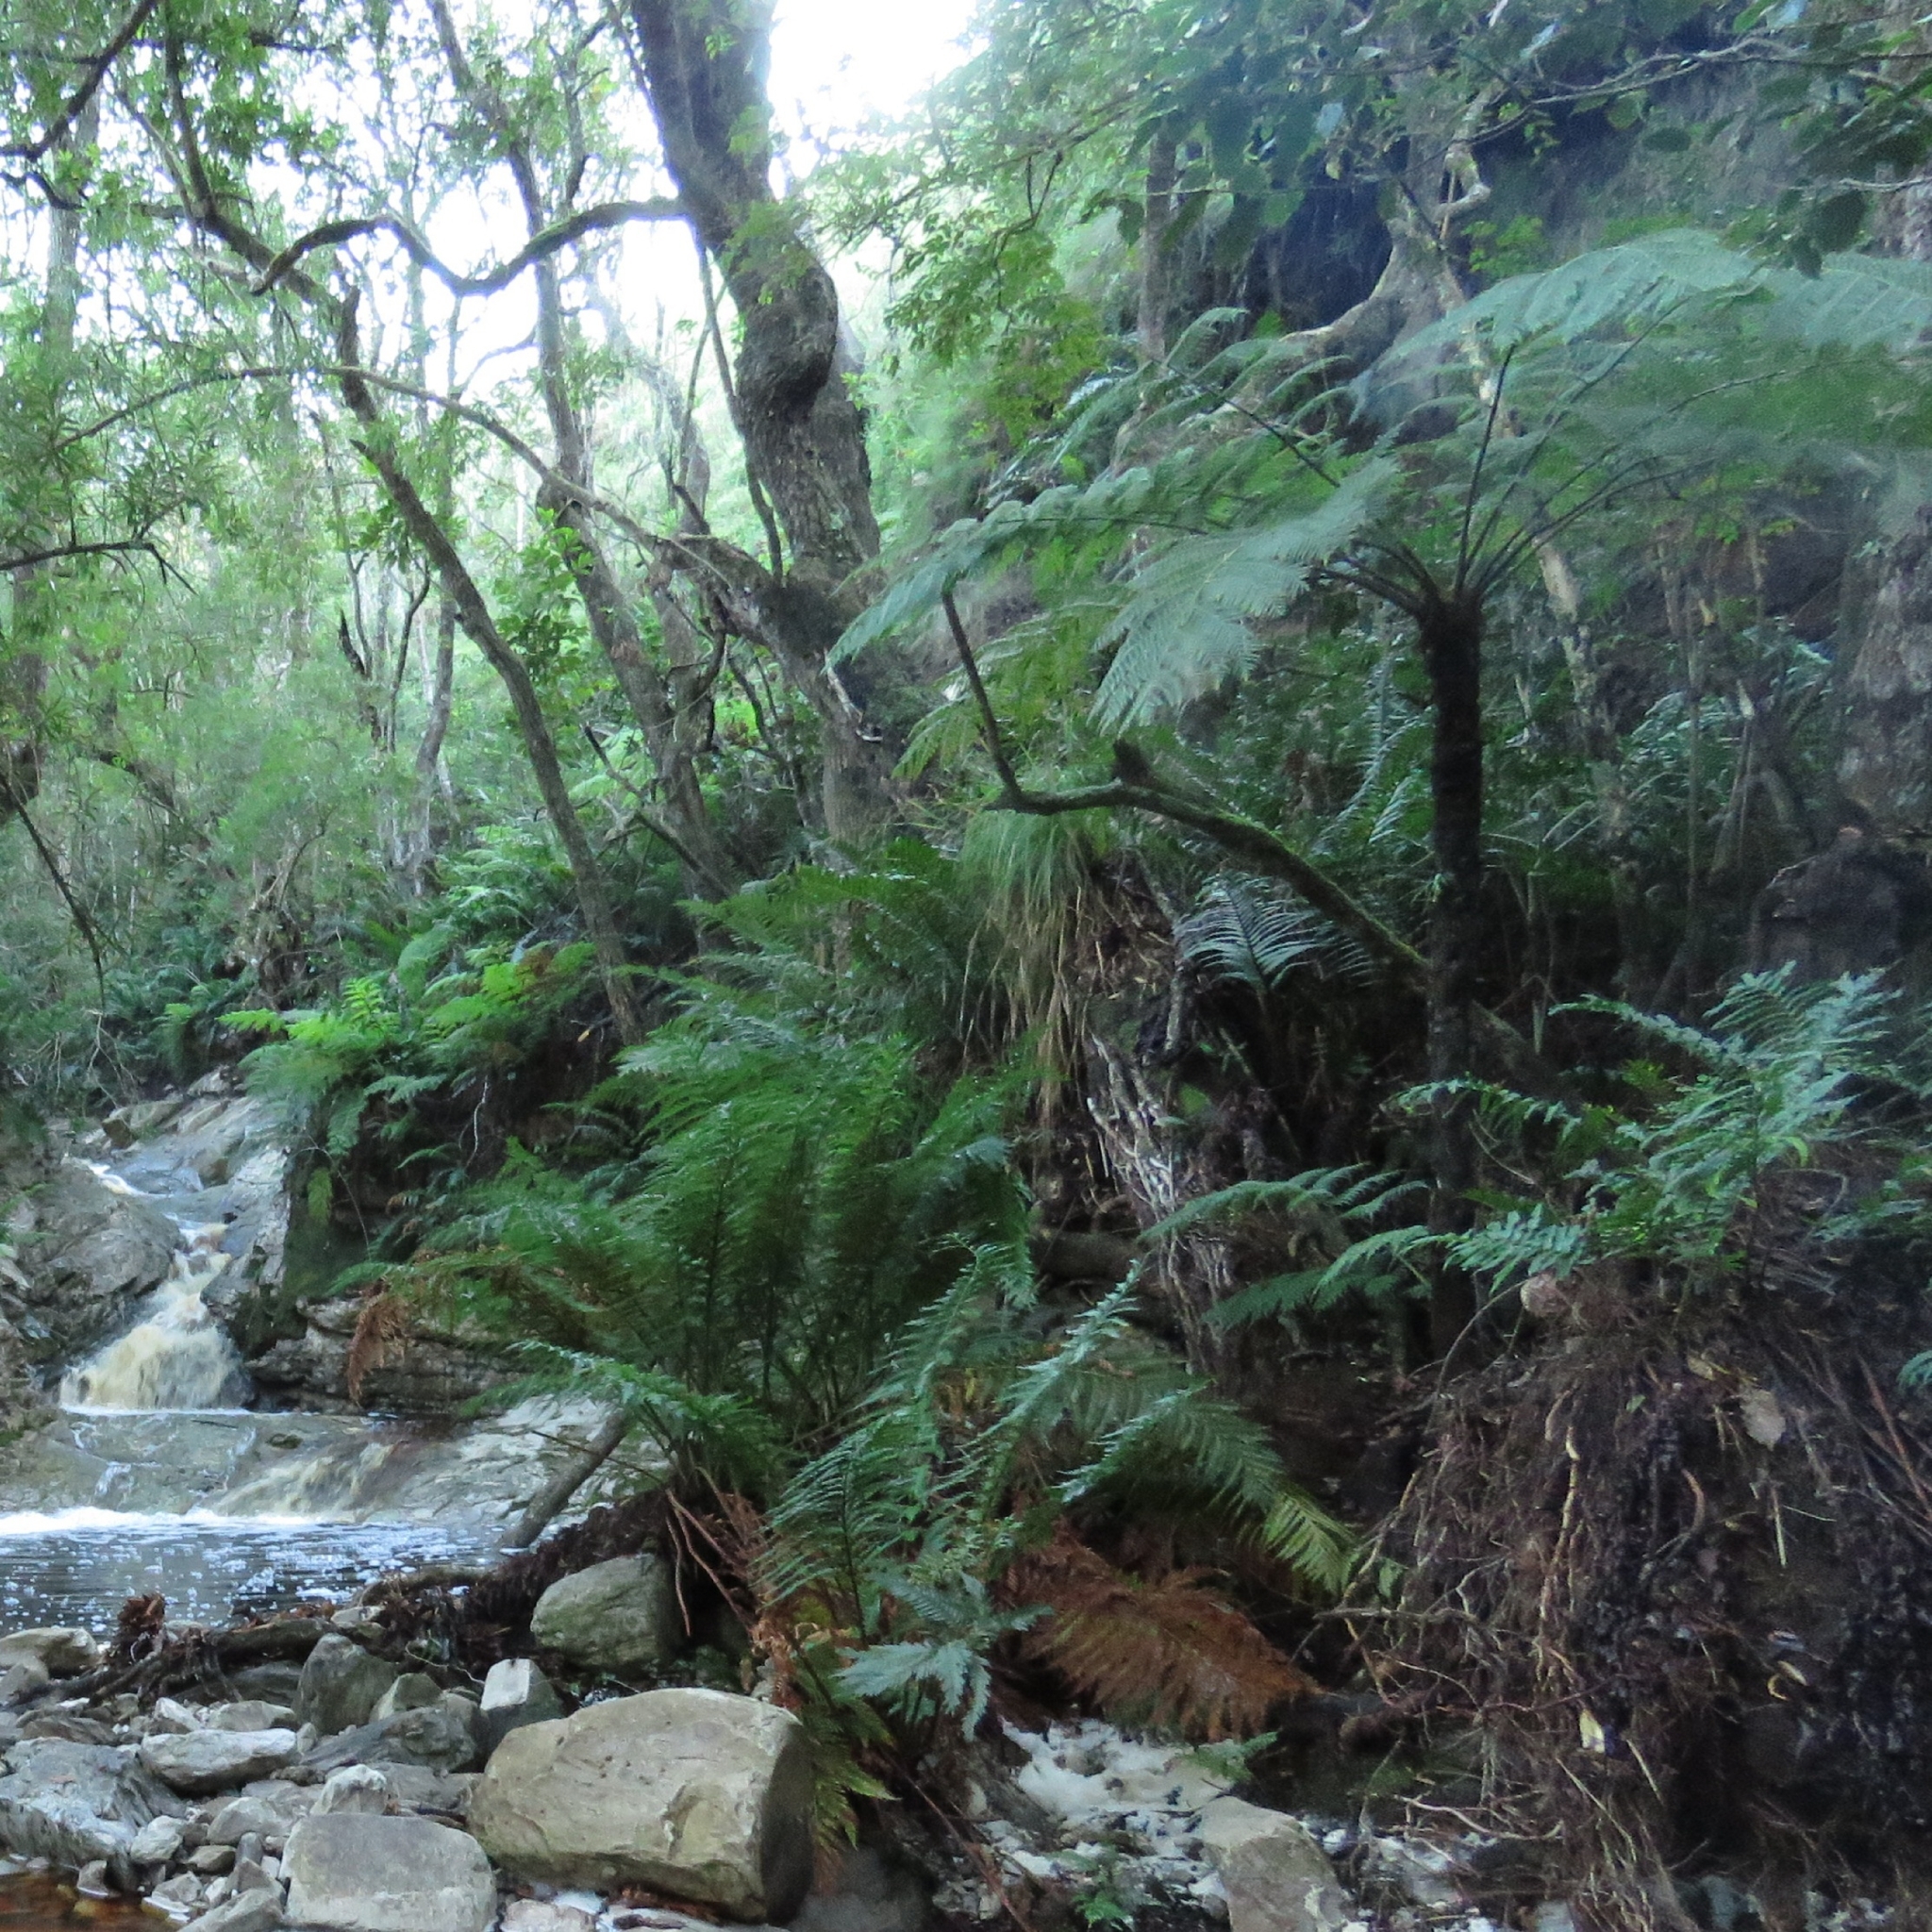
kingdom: Plantae
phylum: Tracheophyta
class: Polypodiopsida
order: Cyatheales
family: Cyatheaceae
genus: Gymnosphaera
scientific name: Gymnosphaera capensis
